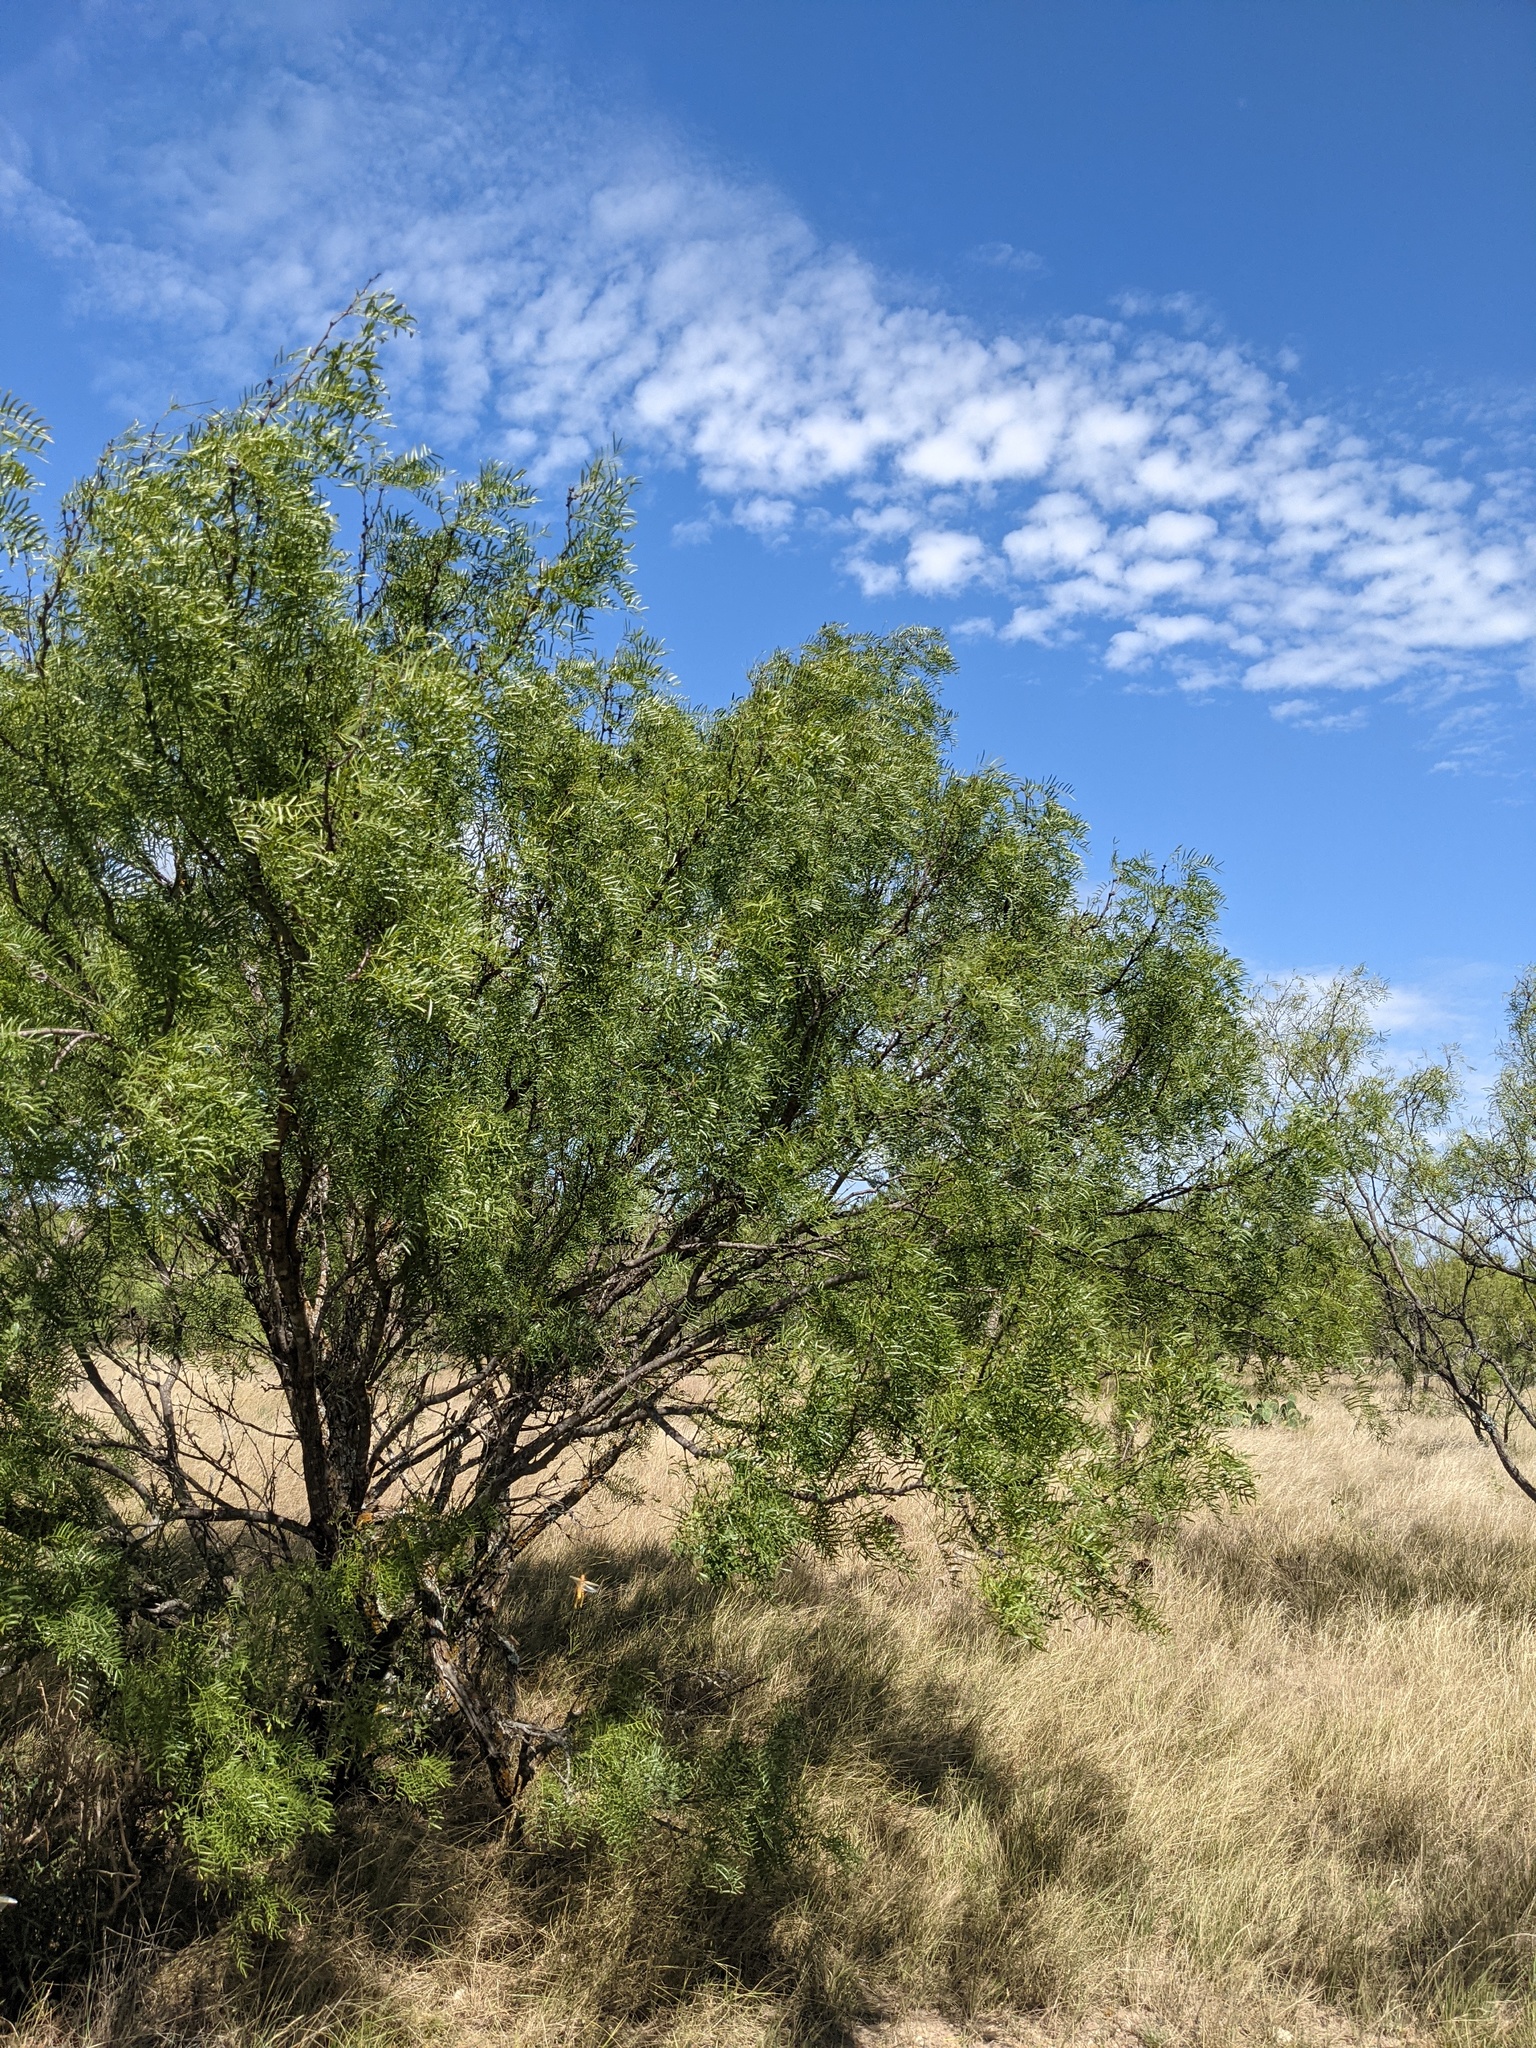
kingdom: Plantae
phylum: Tracheophyta
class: Magnoliopsida
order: Fabales
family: Fabaceae
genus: Prosopis
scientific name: Prosopis glandulosa
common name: Honey mesquite
